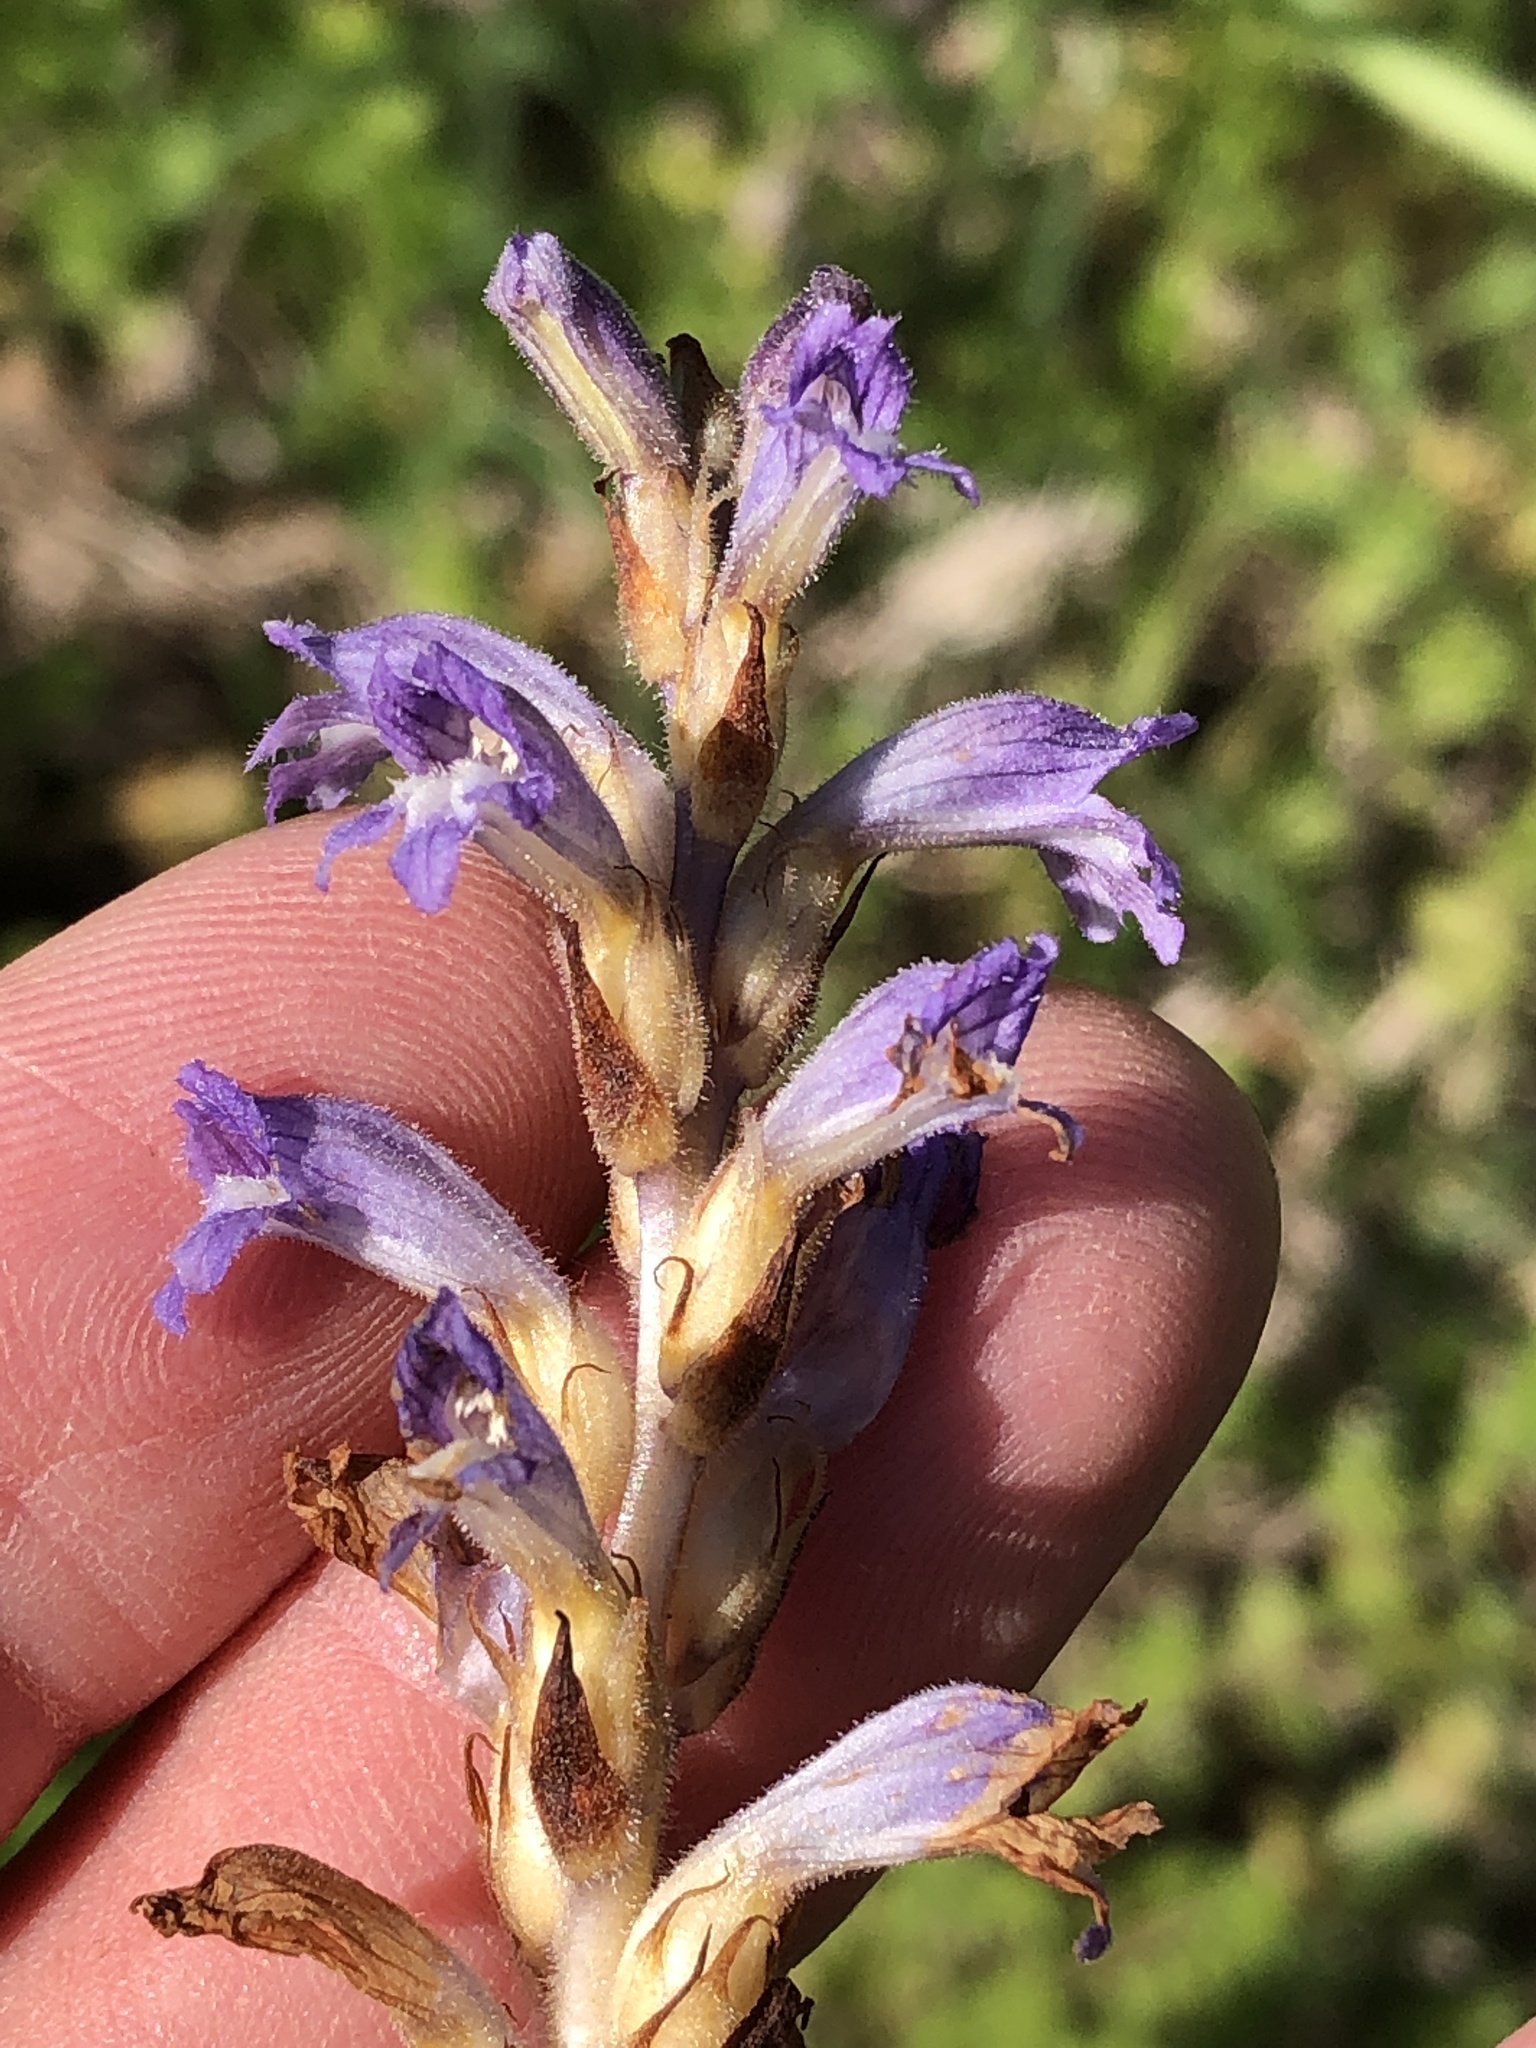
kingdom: Plantae
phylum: Tracheophyta
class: Magnoliopsida
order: Lamiales
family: Orobanchaceae
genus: Phelipanche
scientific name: Phelipanche mutelii
